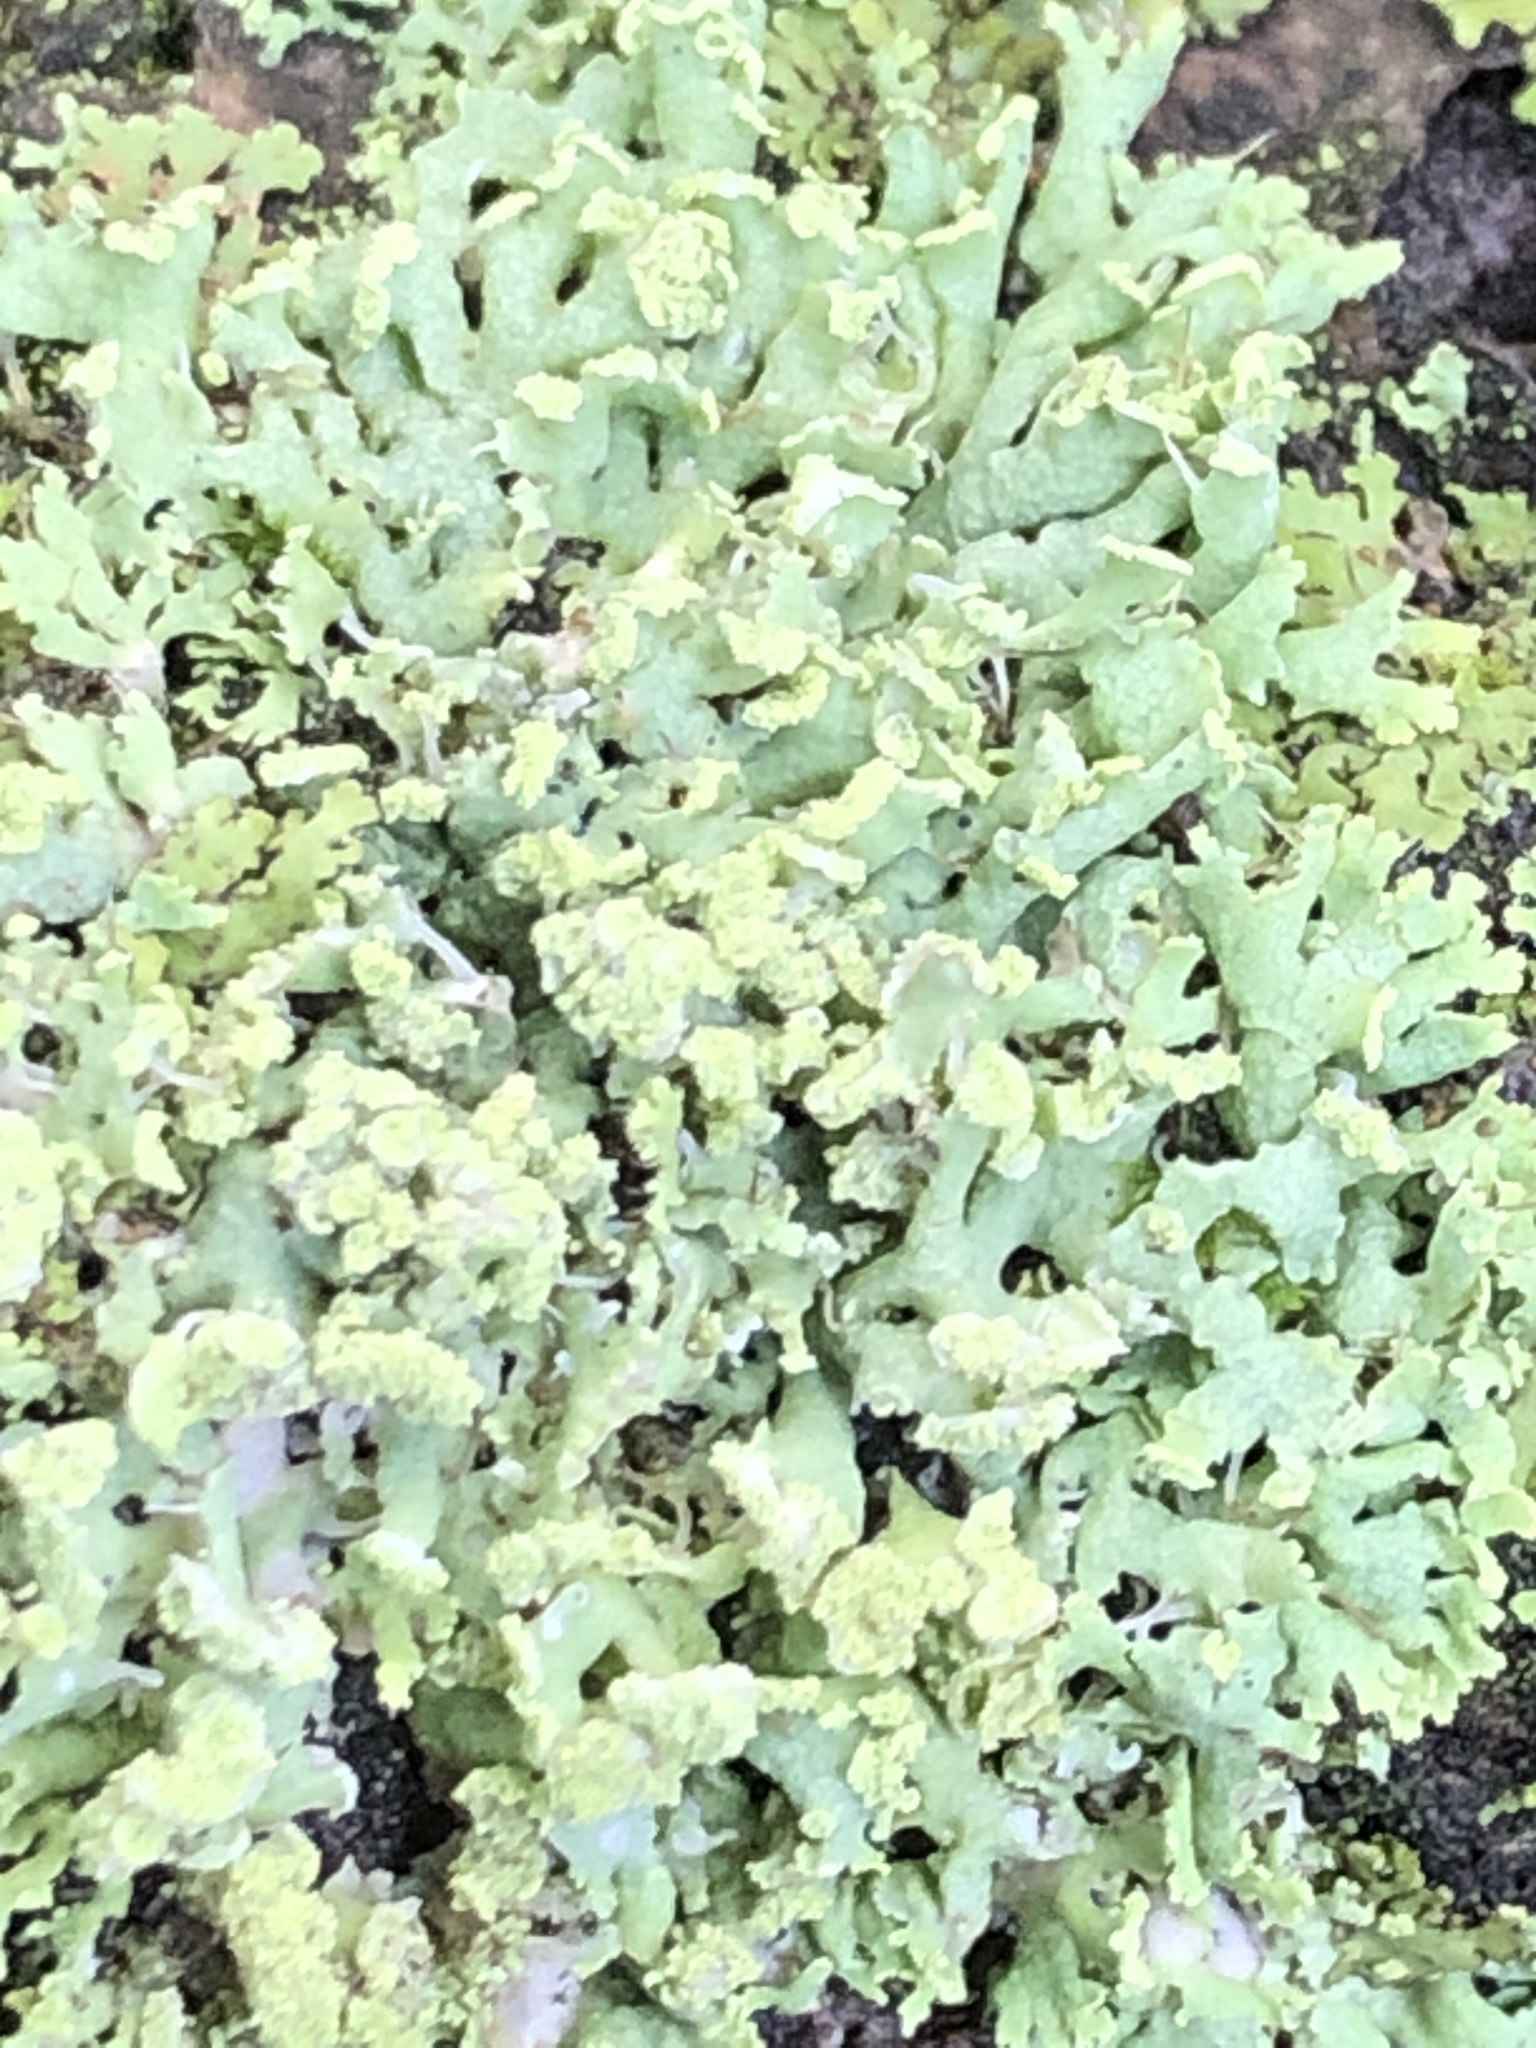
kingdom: Fungi
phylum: Ascomycota
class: Lecanoromycetes
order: Caliciales
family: Physciaceae
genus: Physcia
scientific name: Physcia tenella
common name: Fringed rosette lichen
